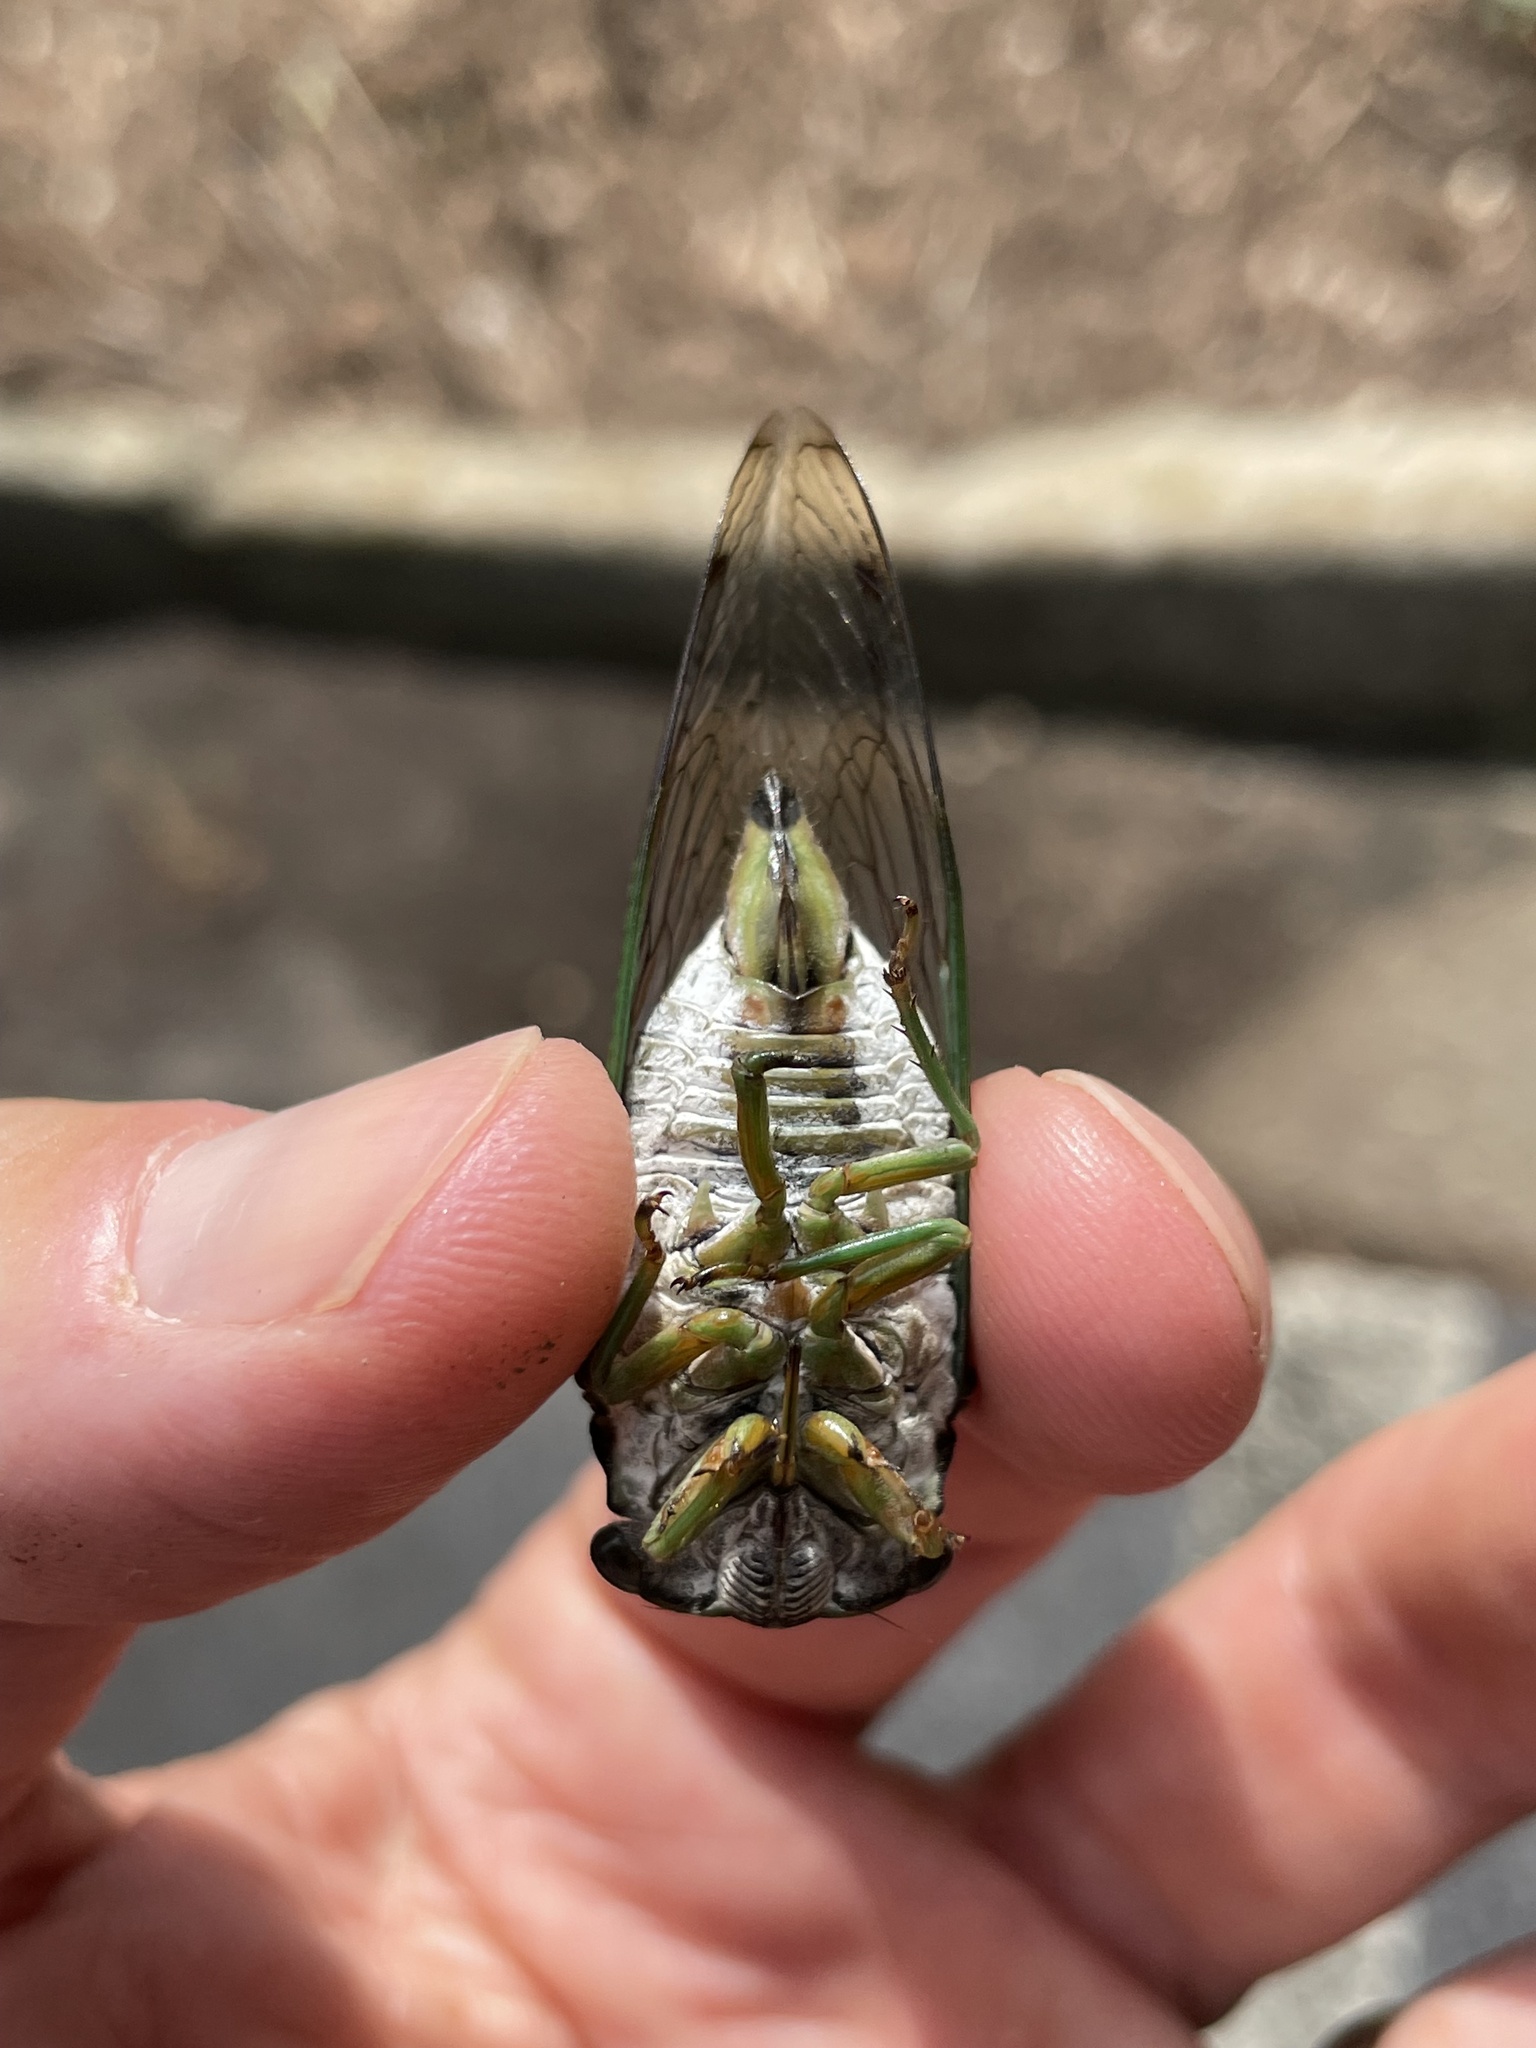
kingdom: Animalia
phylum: Arthropoda
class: Insecta
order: Hemiptera
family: Cicadidae
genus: Neotibicen
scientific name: Neotibicen tibicen
